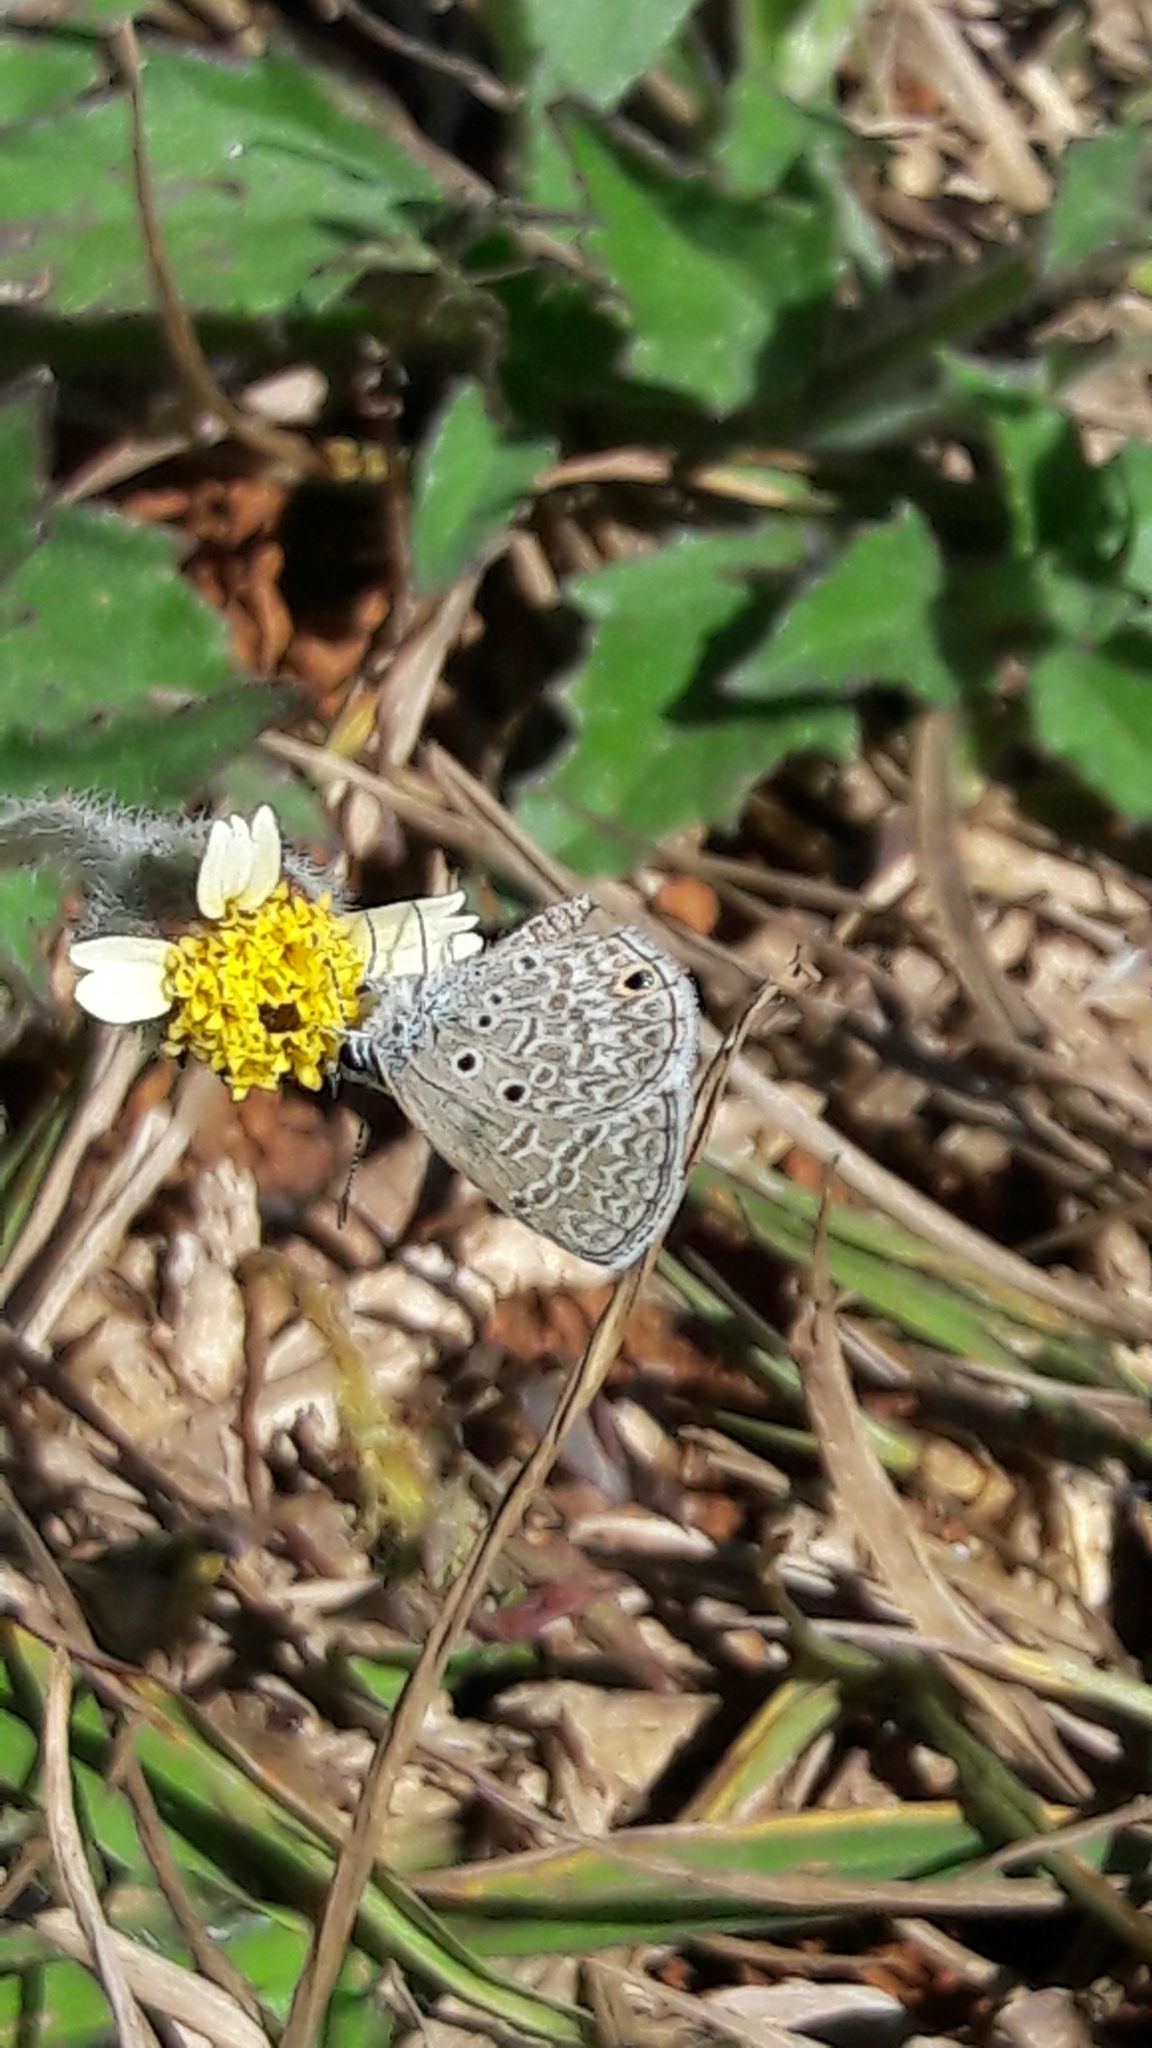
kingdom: Animalia
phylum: Arthropoda
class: Insecta
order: Lepidoptera
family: Lycaenidae
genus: Hemiargus
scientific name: Hemiargus hanno
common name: Common blue
